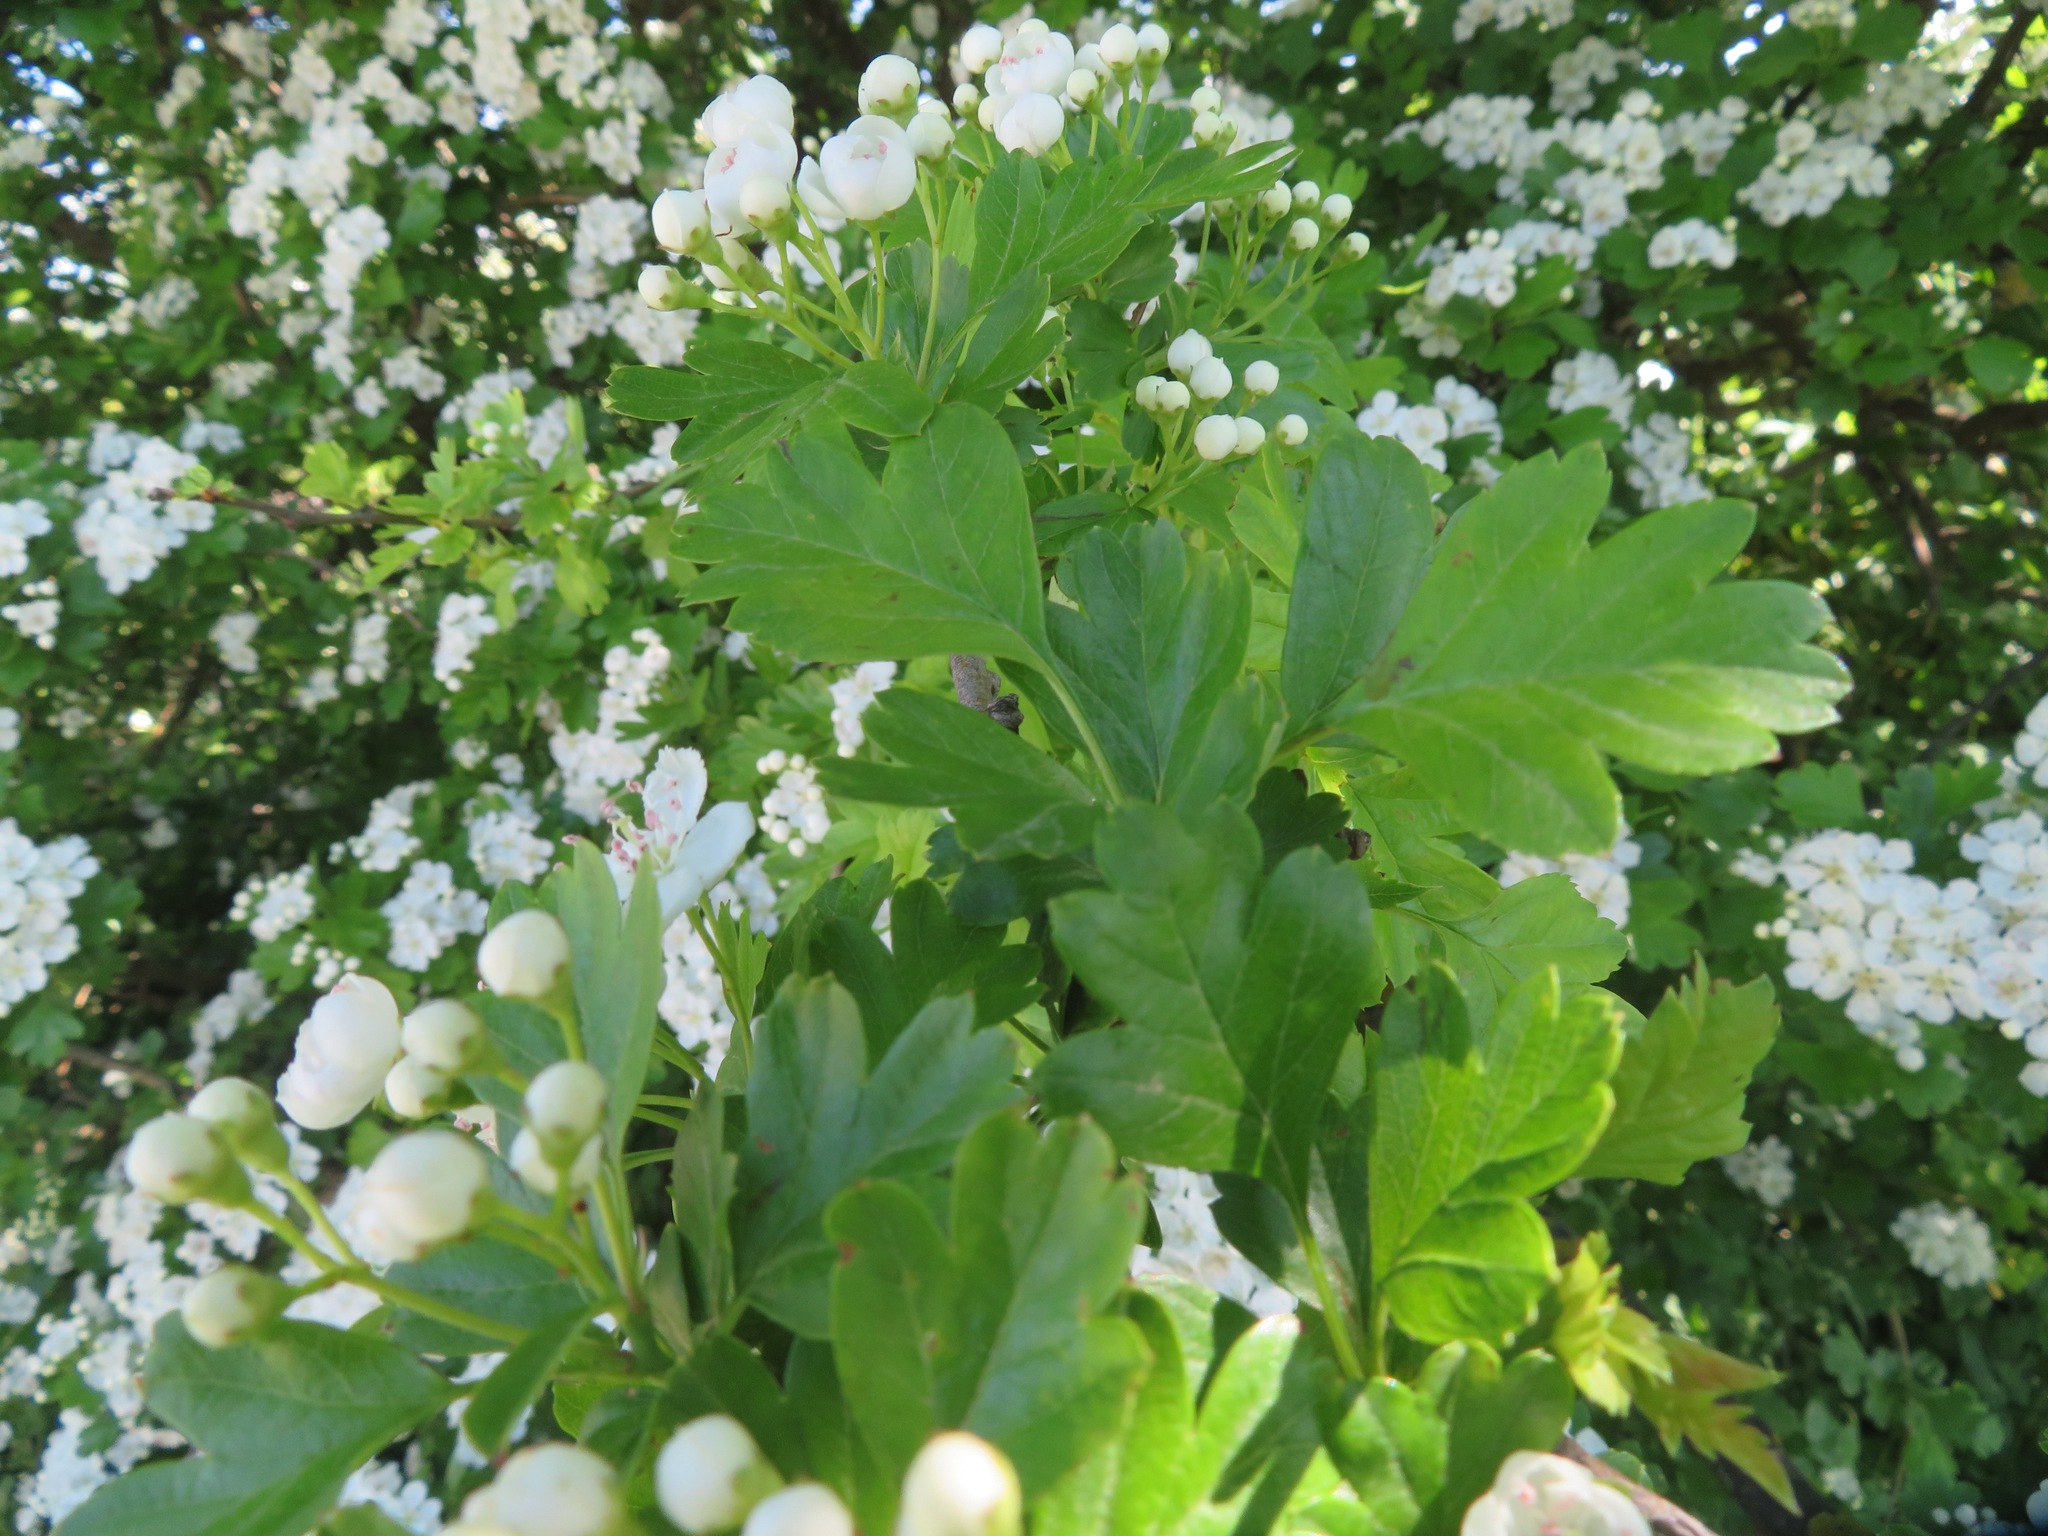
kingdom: Plantae
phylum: Tracheophyta
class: Magnoliopsida
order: Rosales
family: Rosaceae
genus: Crataegus
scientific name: Crataegus monogyna
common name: Hawthorn
